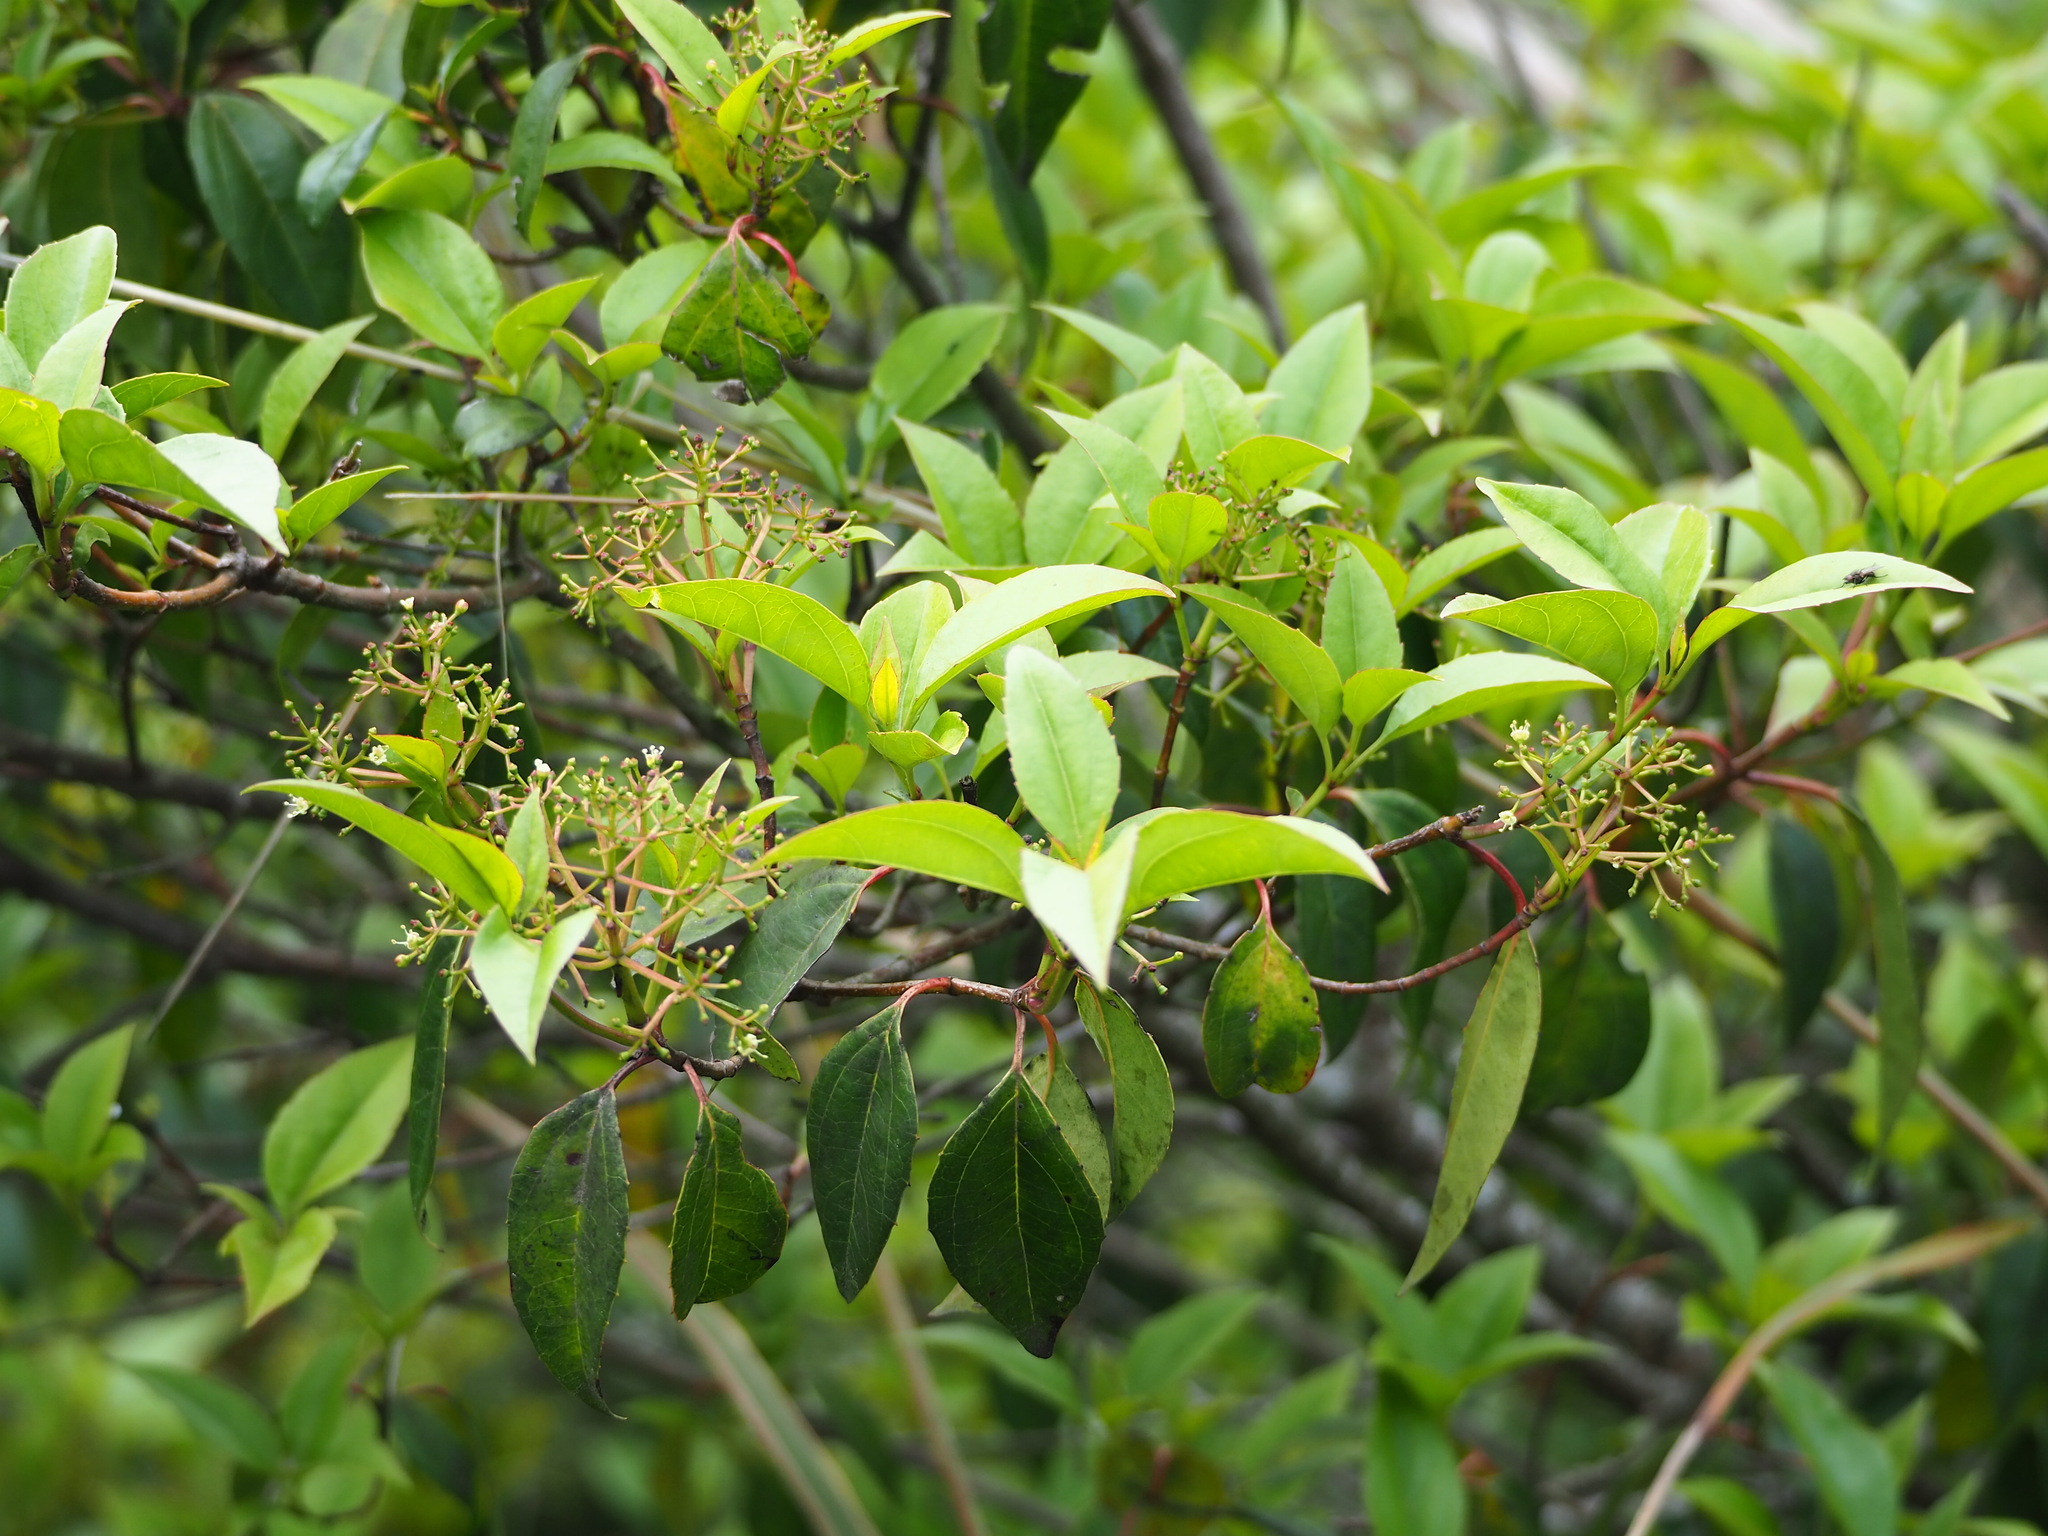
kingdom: Plantae
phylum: Tracheophyta
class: Magnoliopsida
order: Dipsacales
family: Viburnaceae
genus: Viburnum
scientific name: Viburnum propinquum
